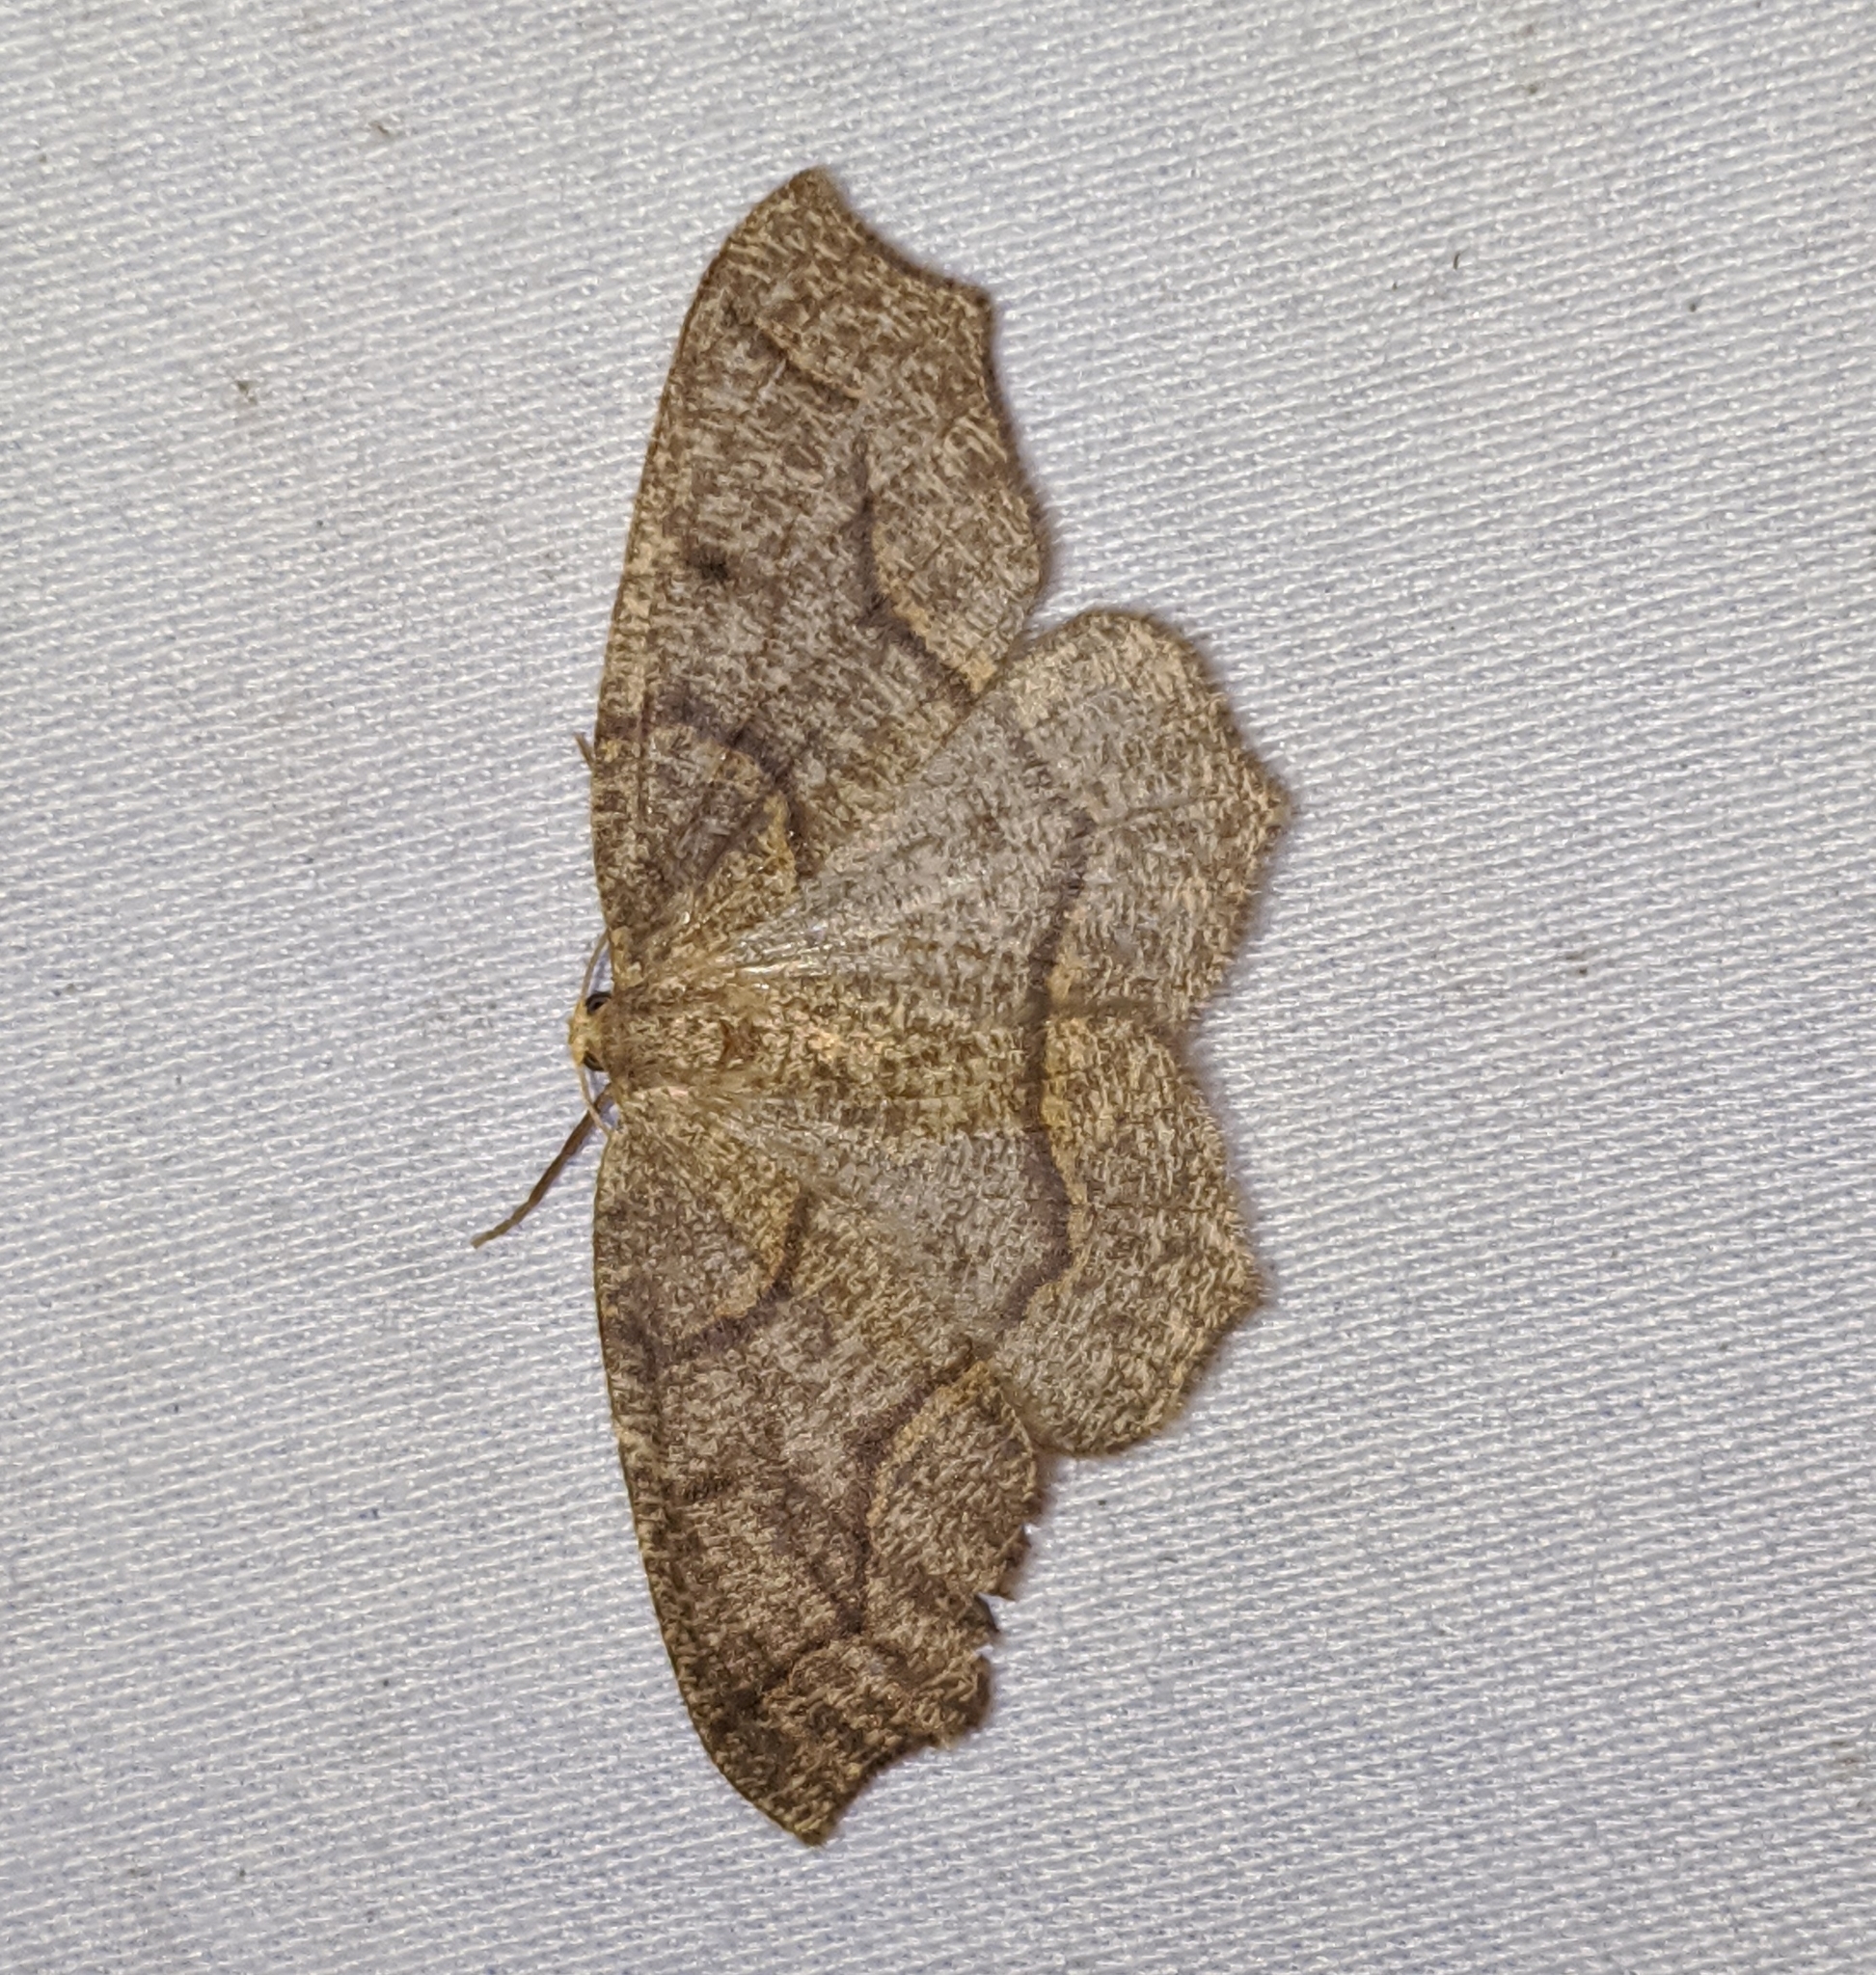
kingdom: Animalia
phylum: Arthropoda
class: Insecta
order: Lepidoptera
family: Geometridae
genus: Lambdina
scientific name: Lambdina fiscellaria
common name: Hemlock looper
